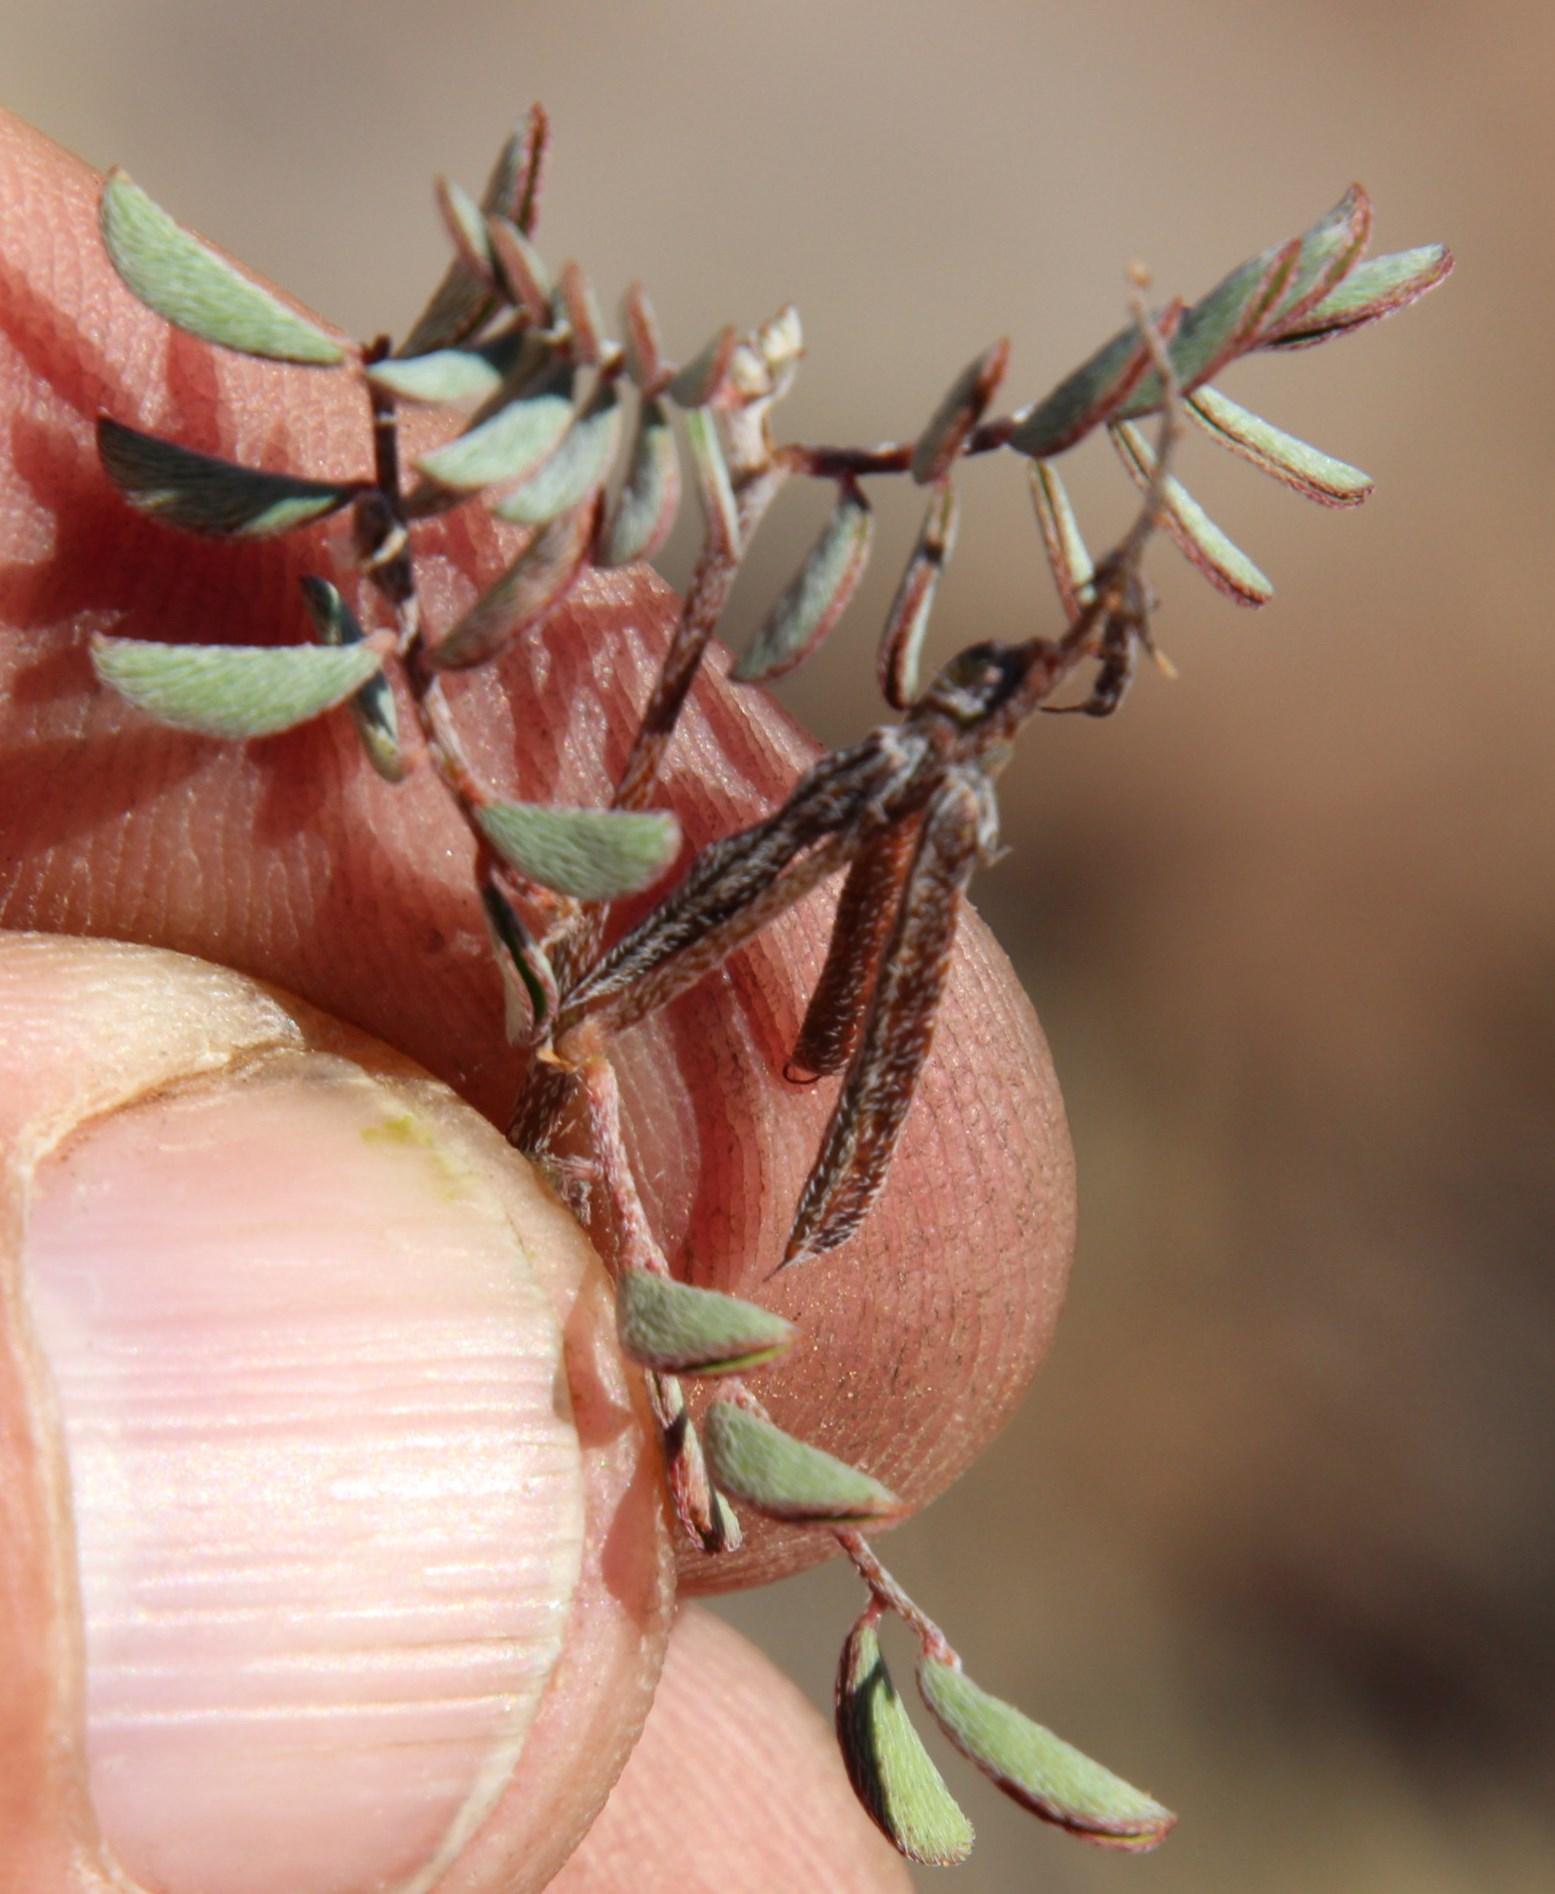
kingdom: Plantae
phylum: Tracheophyta
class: Magnoliopsida
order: Fabales
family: Fabaceae
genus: Indigofera
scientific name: Indigofera alternans
